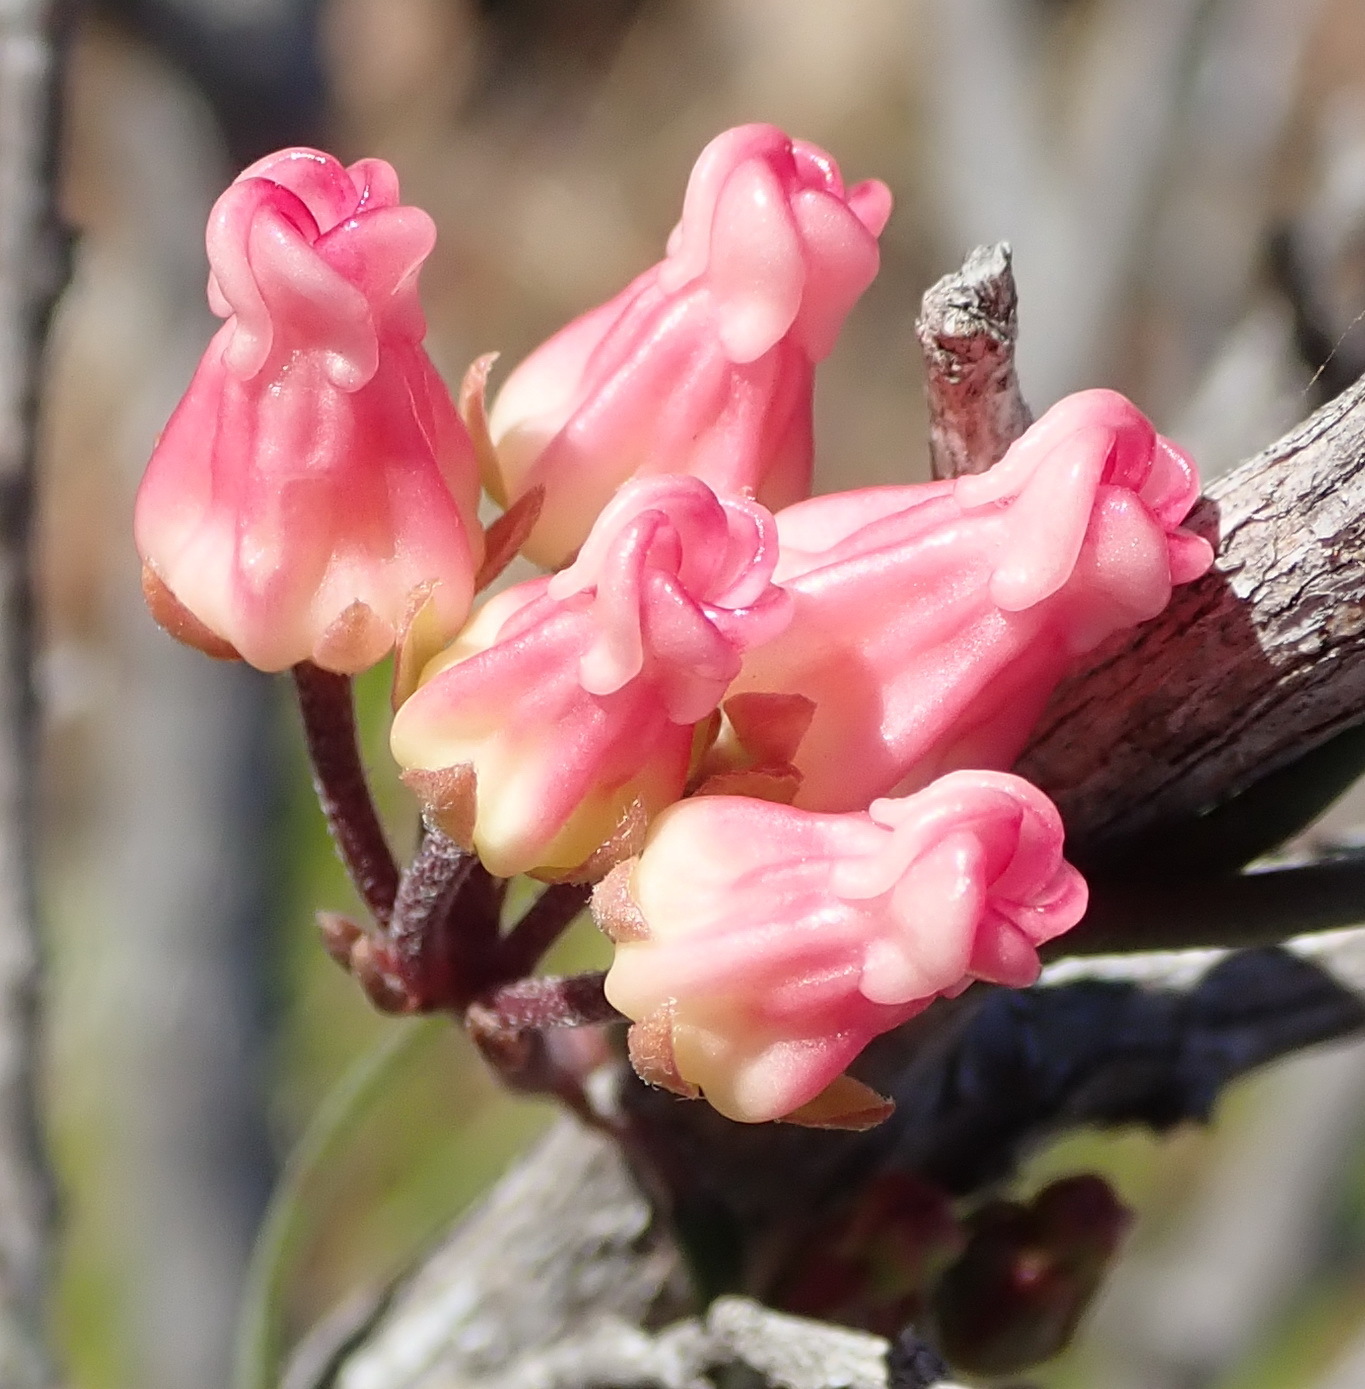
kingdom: Plantae
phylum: Tracheophyta
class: Magnoliopsida
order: Gentianales
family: Apocynaceae
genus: Microloma
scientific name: Microloma tenuifolium
